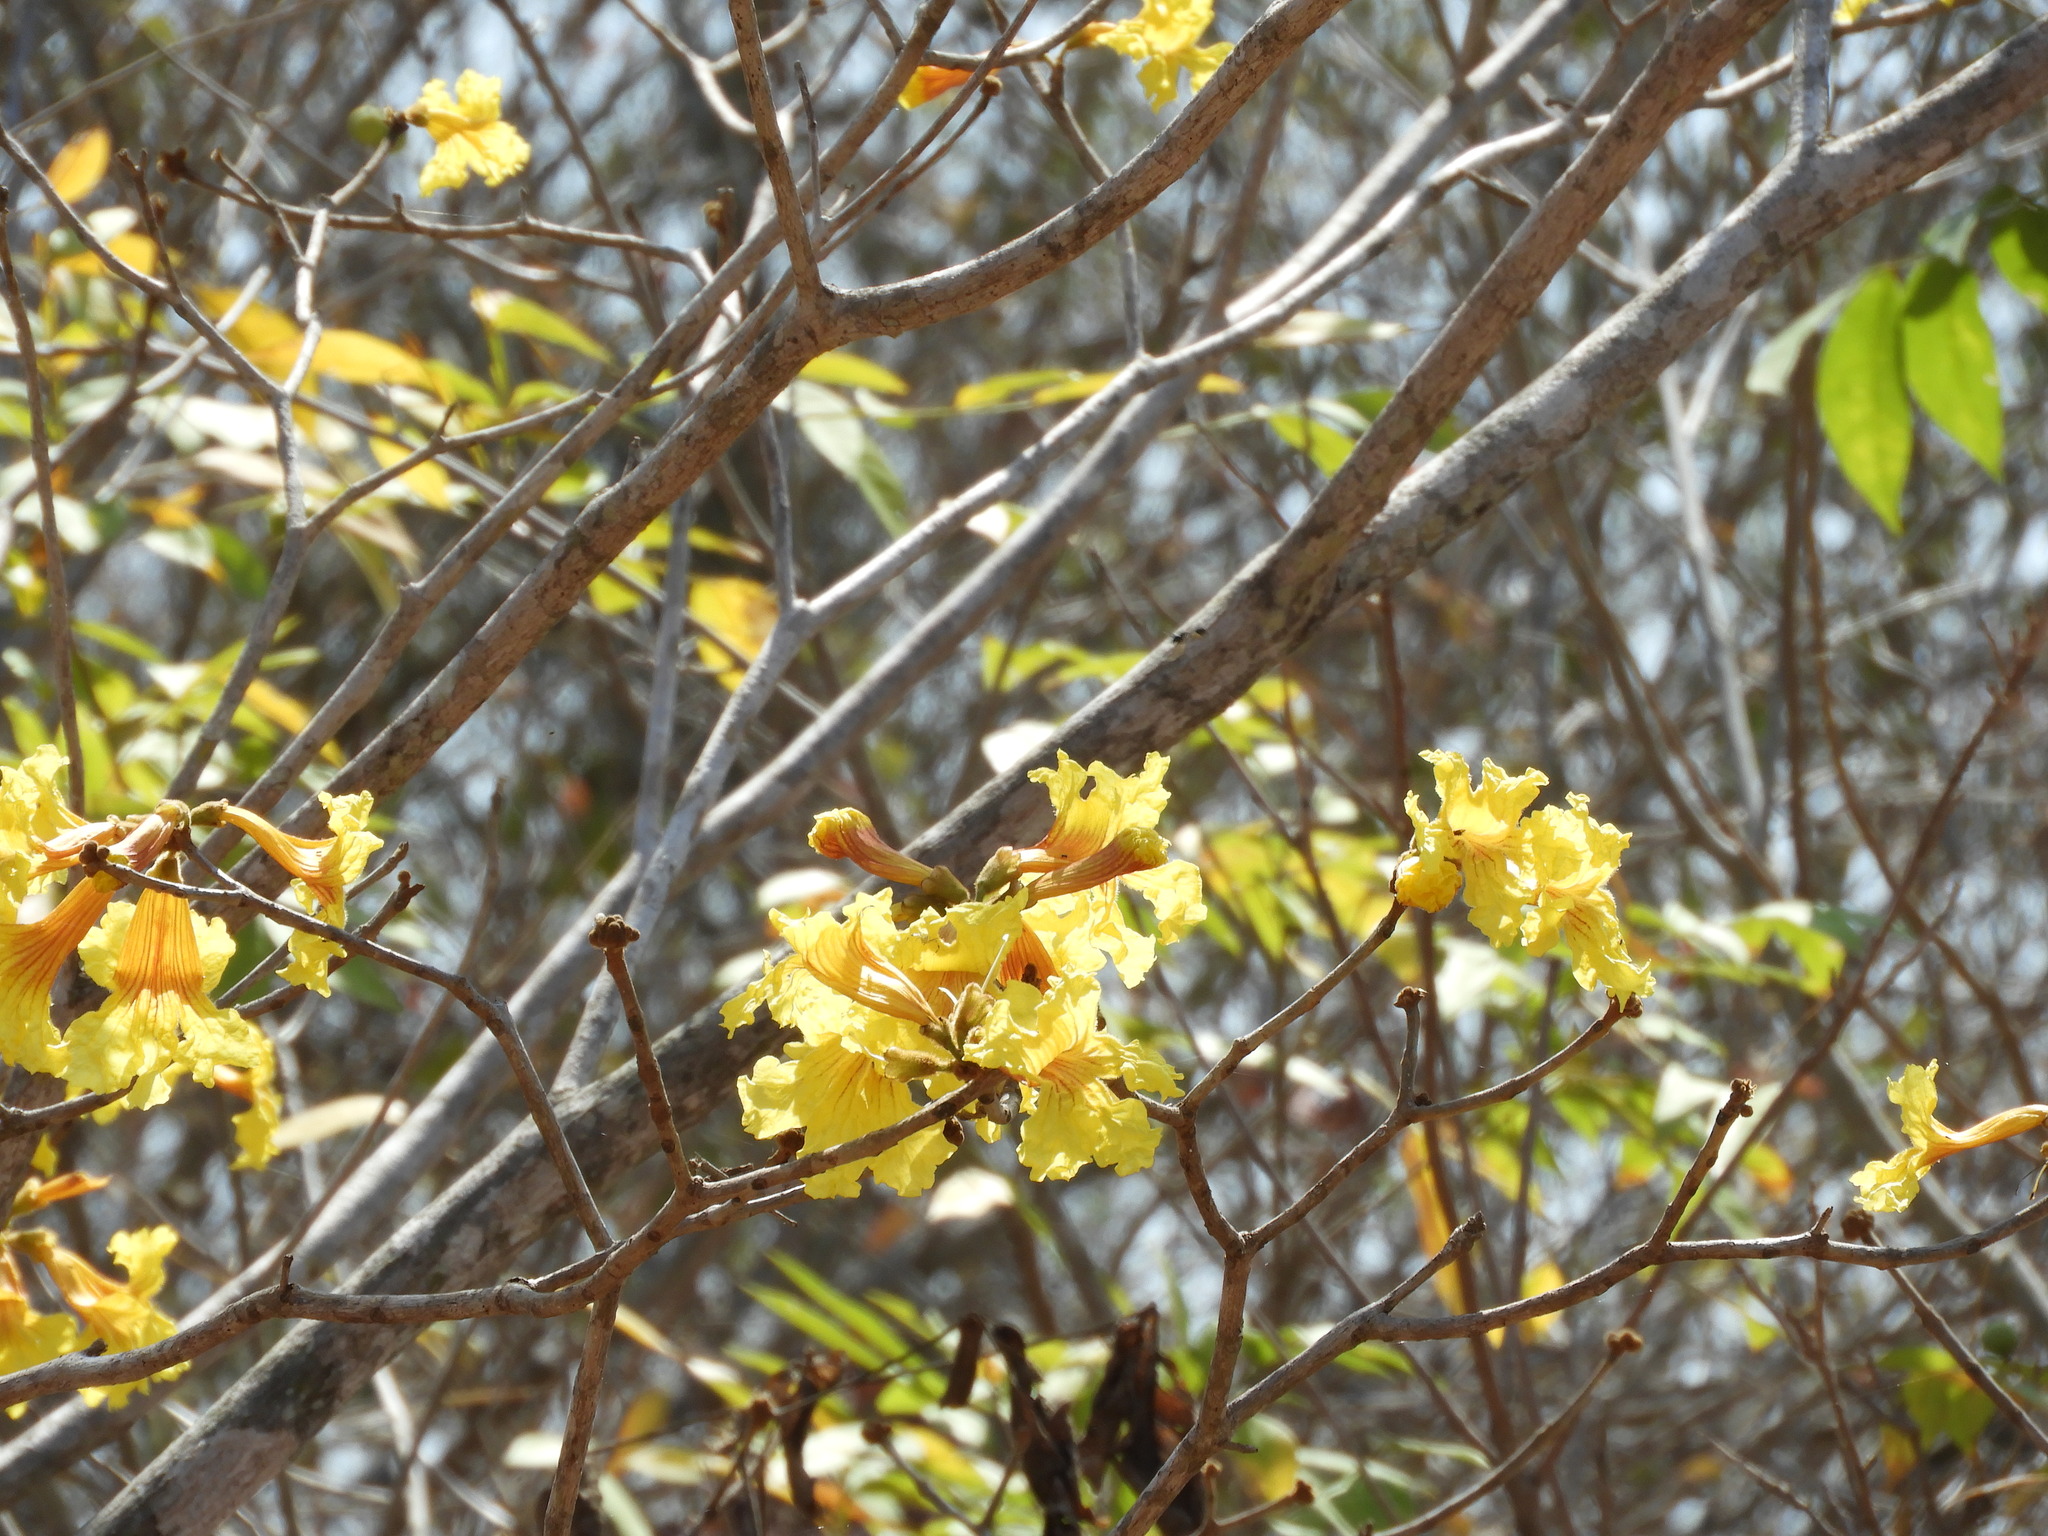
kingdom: Plantae
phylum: Tracheophyta
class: Magnoliopsida
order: Lamiales
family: Bignoniaceae
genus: Handroanthus
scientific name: Handroanthus chrysanthus
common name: Trumpet trees
